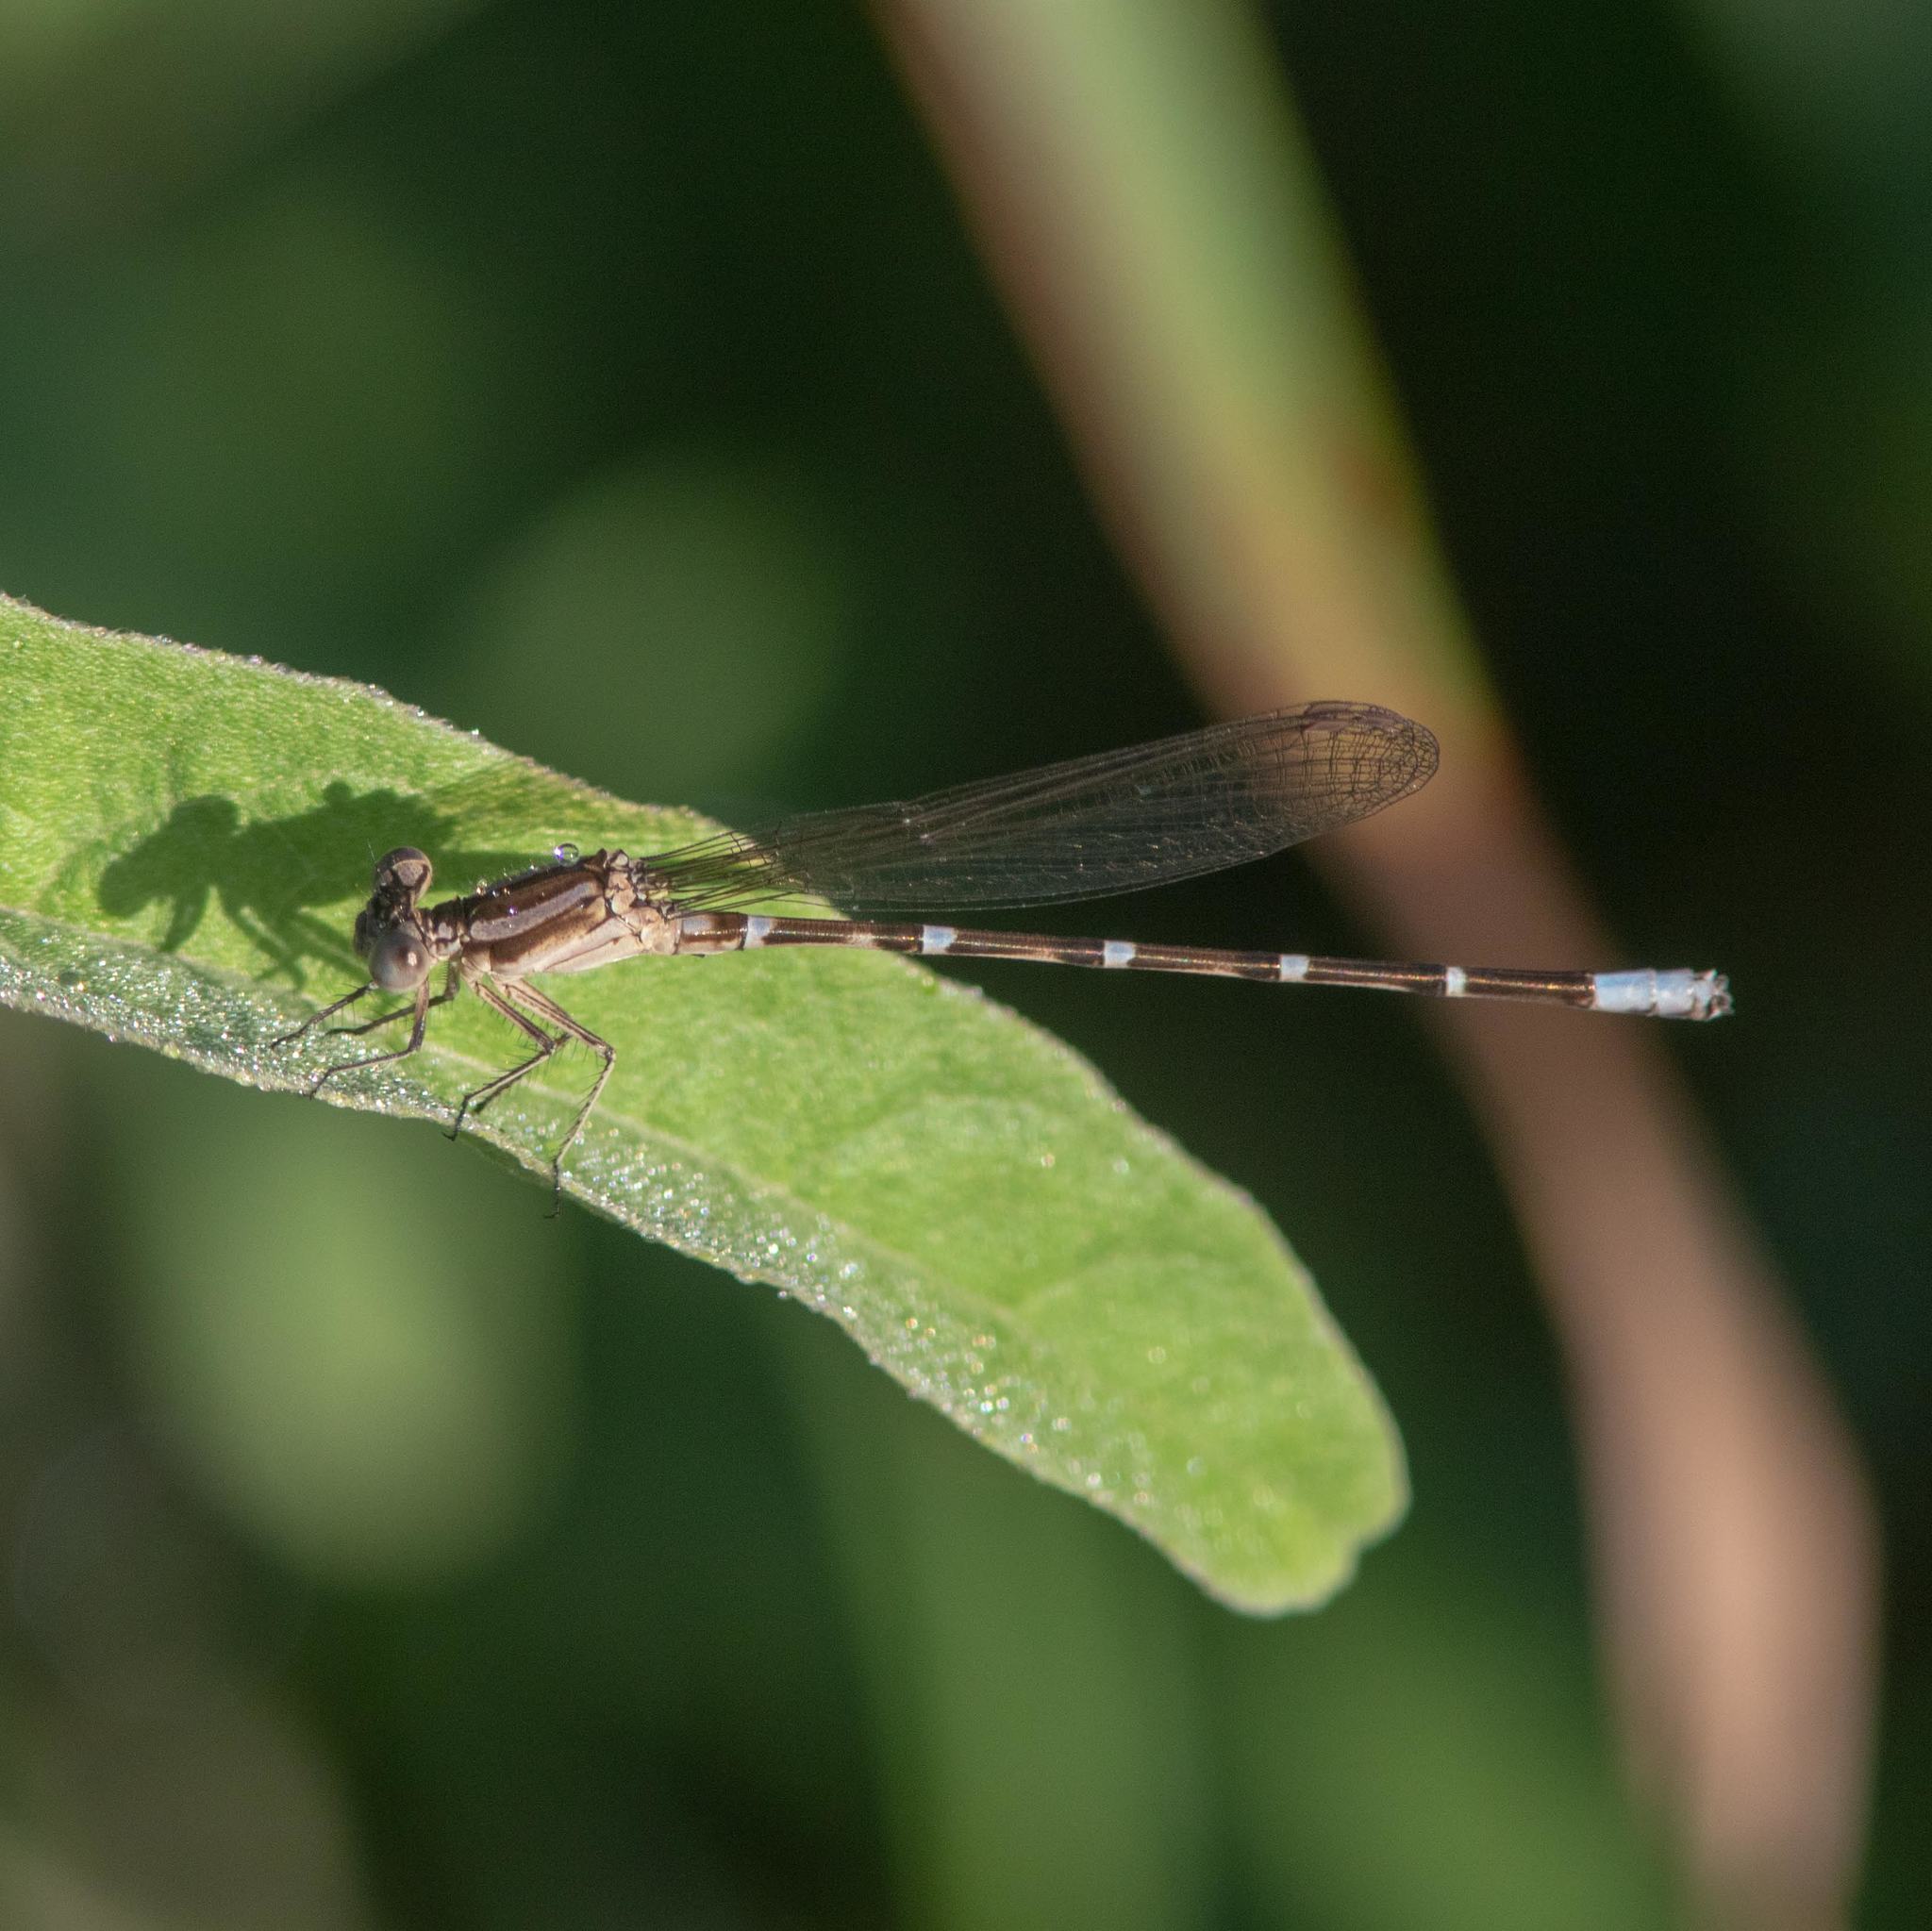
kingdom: Animalia
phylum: Arthropoda
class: Insecta
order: Odonata
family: Coenagrionidae
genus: Argia
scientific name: Argia sedula
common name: Blue-ringed dancer
